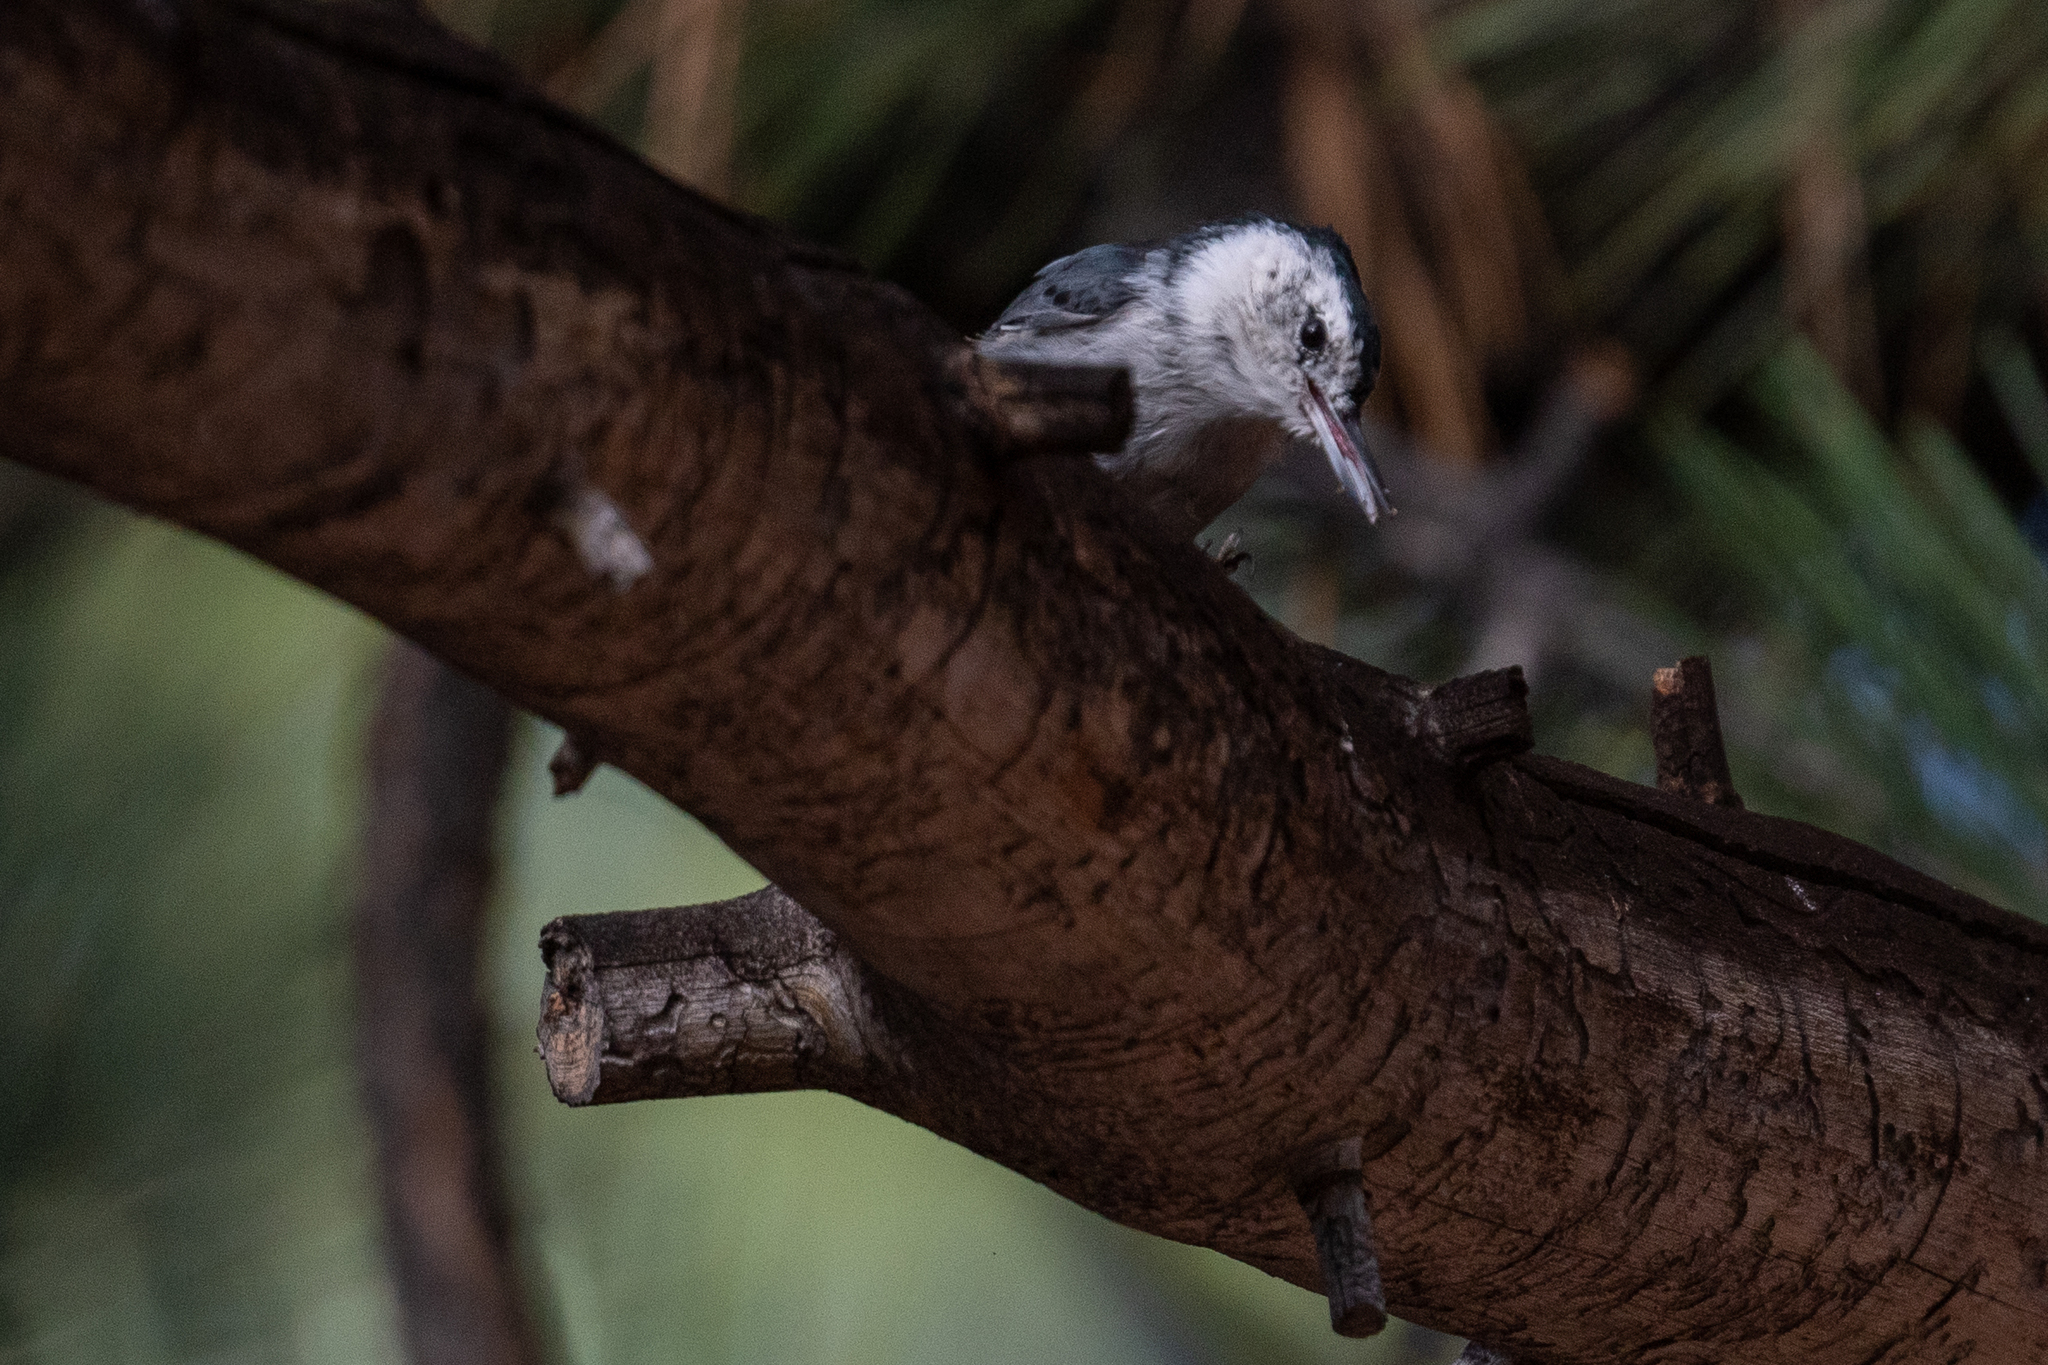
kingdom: Animalia
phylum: Chordata
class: Aves
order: Passeriformes
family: Sittidae
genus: Sitta
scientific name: Sitta carolinensis
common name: White-breasted nuthatch
